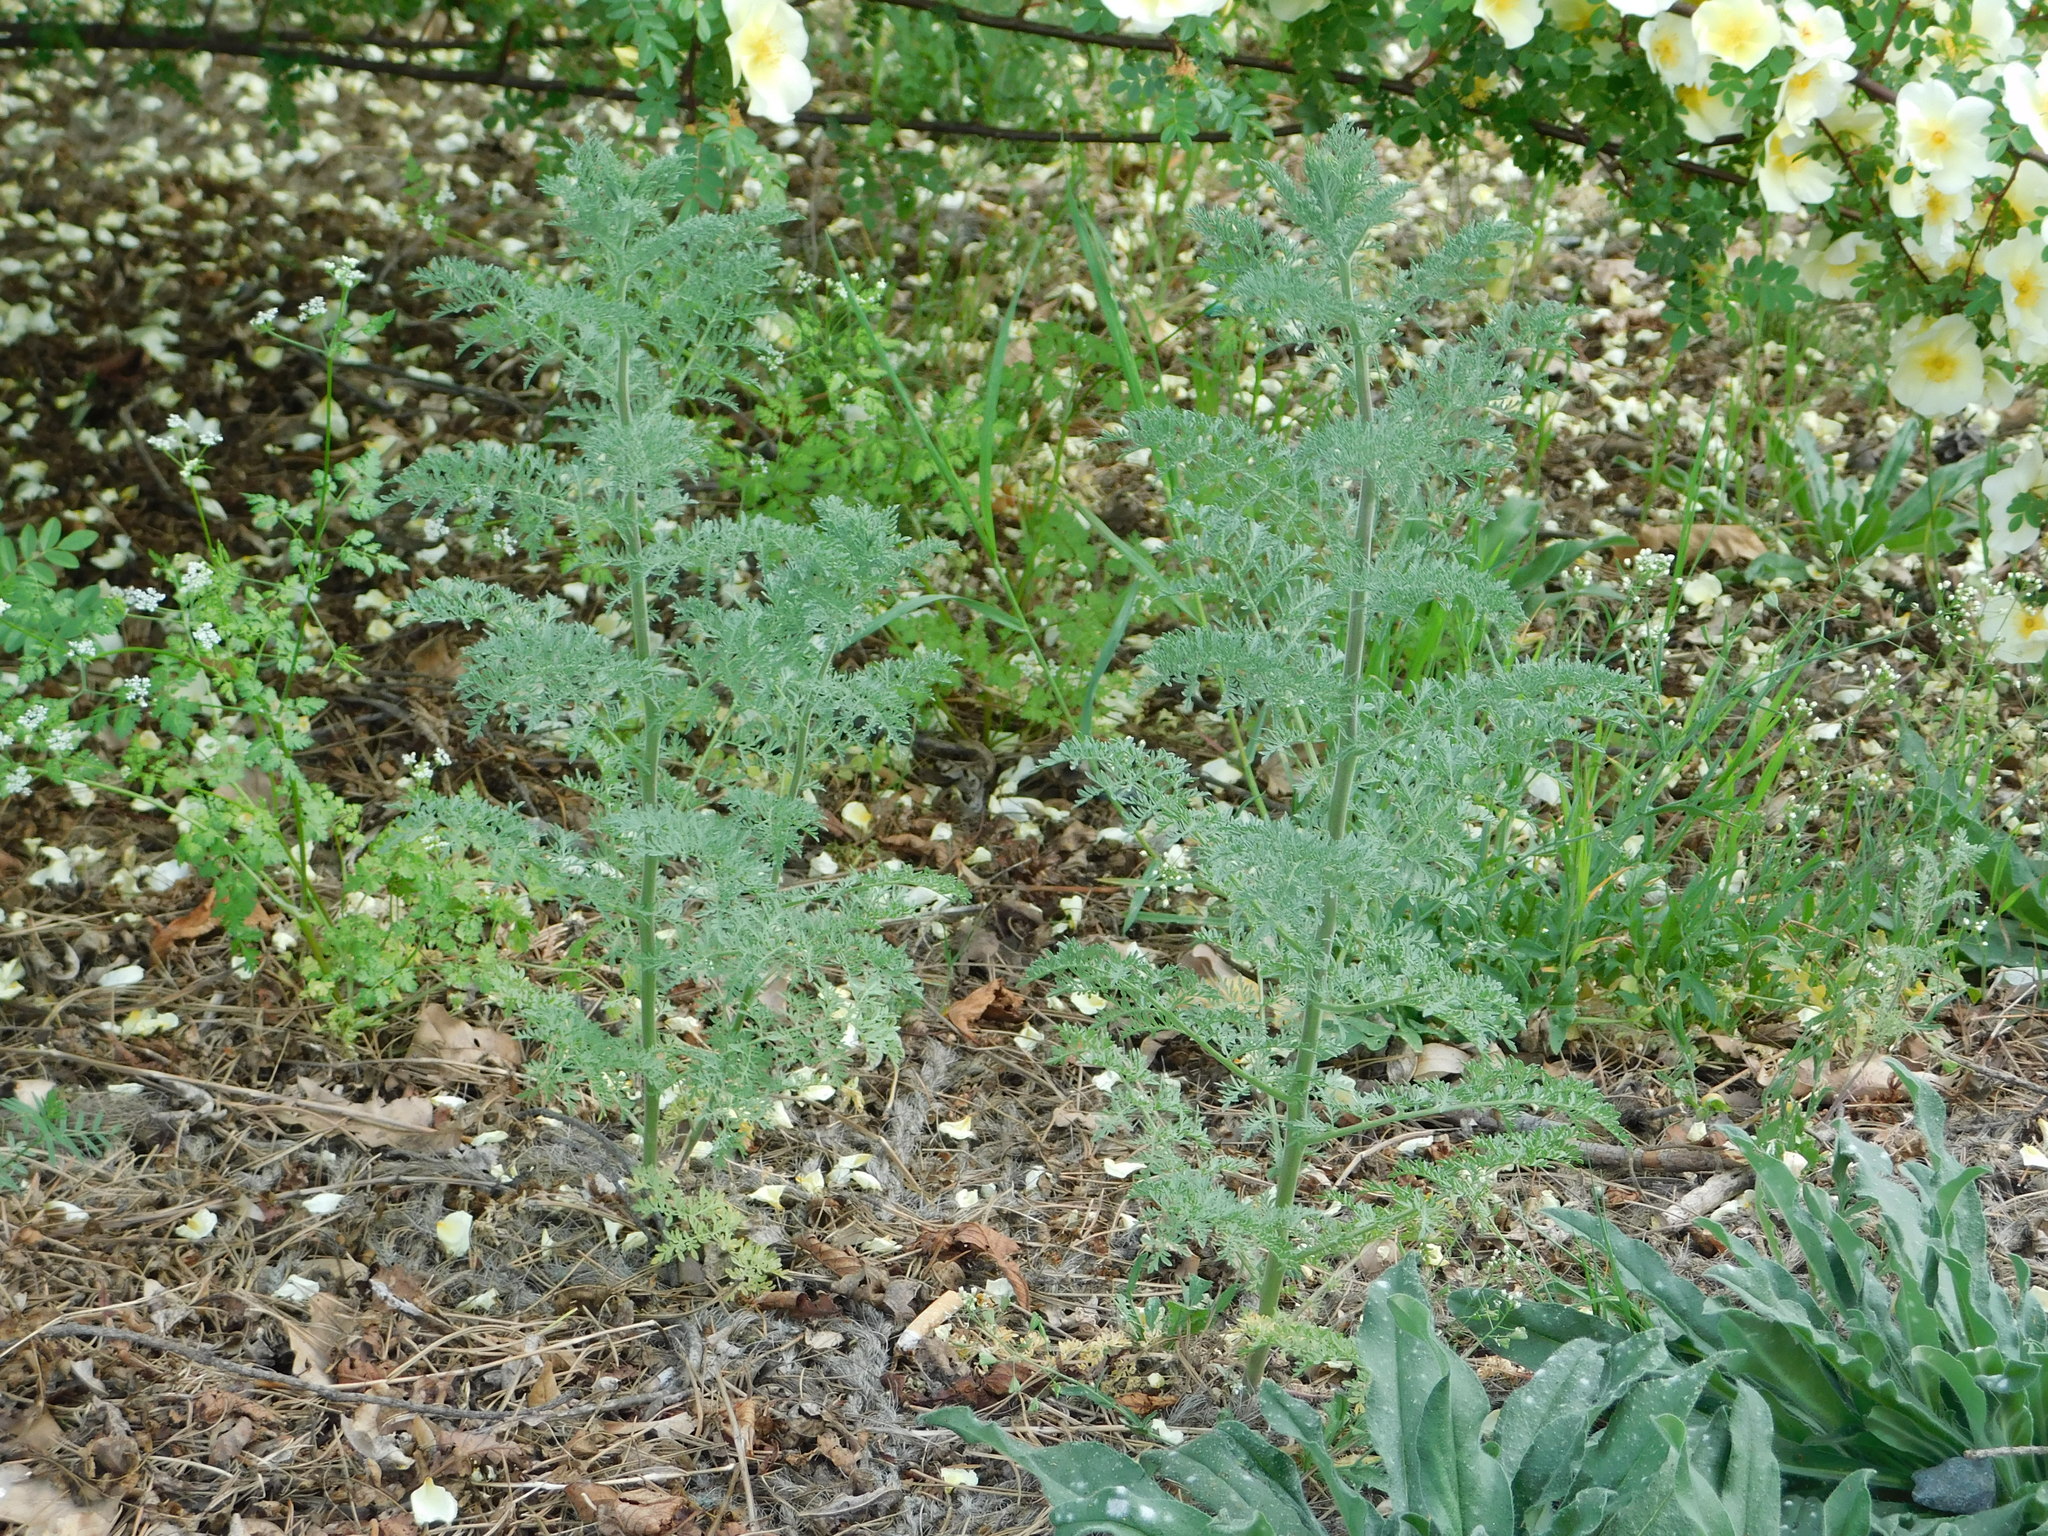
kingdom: Plantae
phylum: Tracheophyta
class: Magnoliopsida
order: Brassicales
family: Brassicaceae
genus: Descurainia
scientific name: Descurainia sophia
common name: Flixweed
